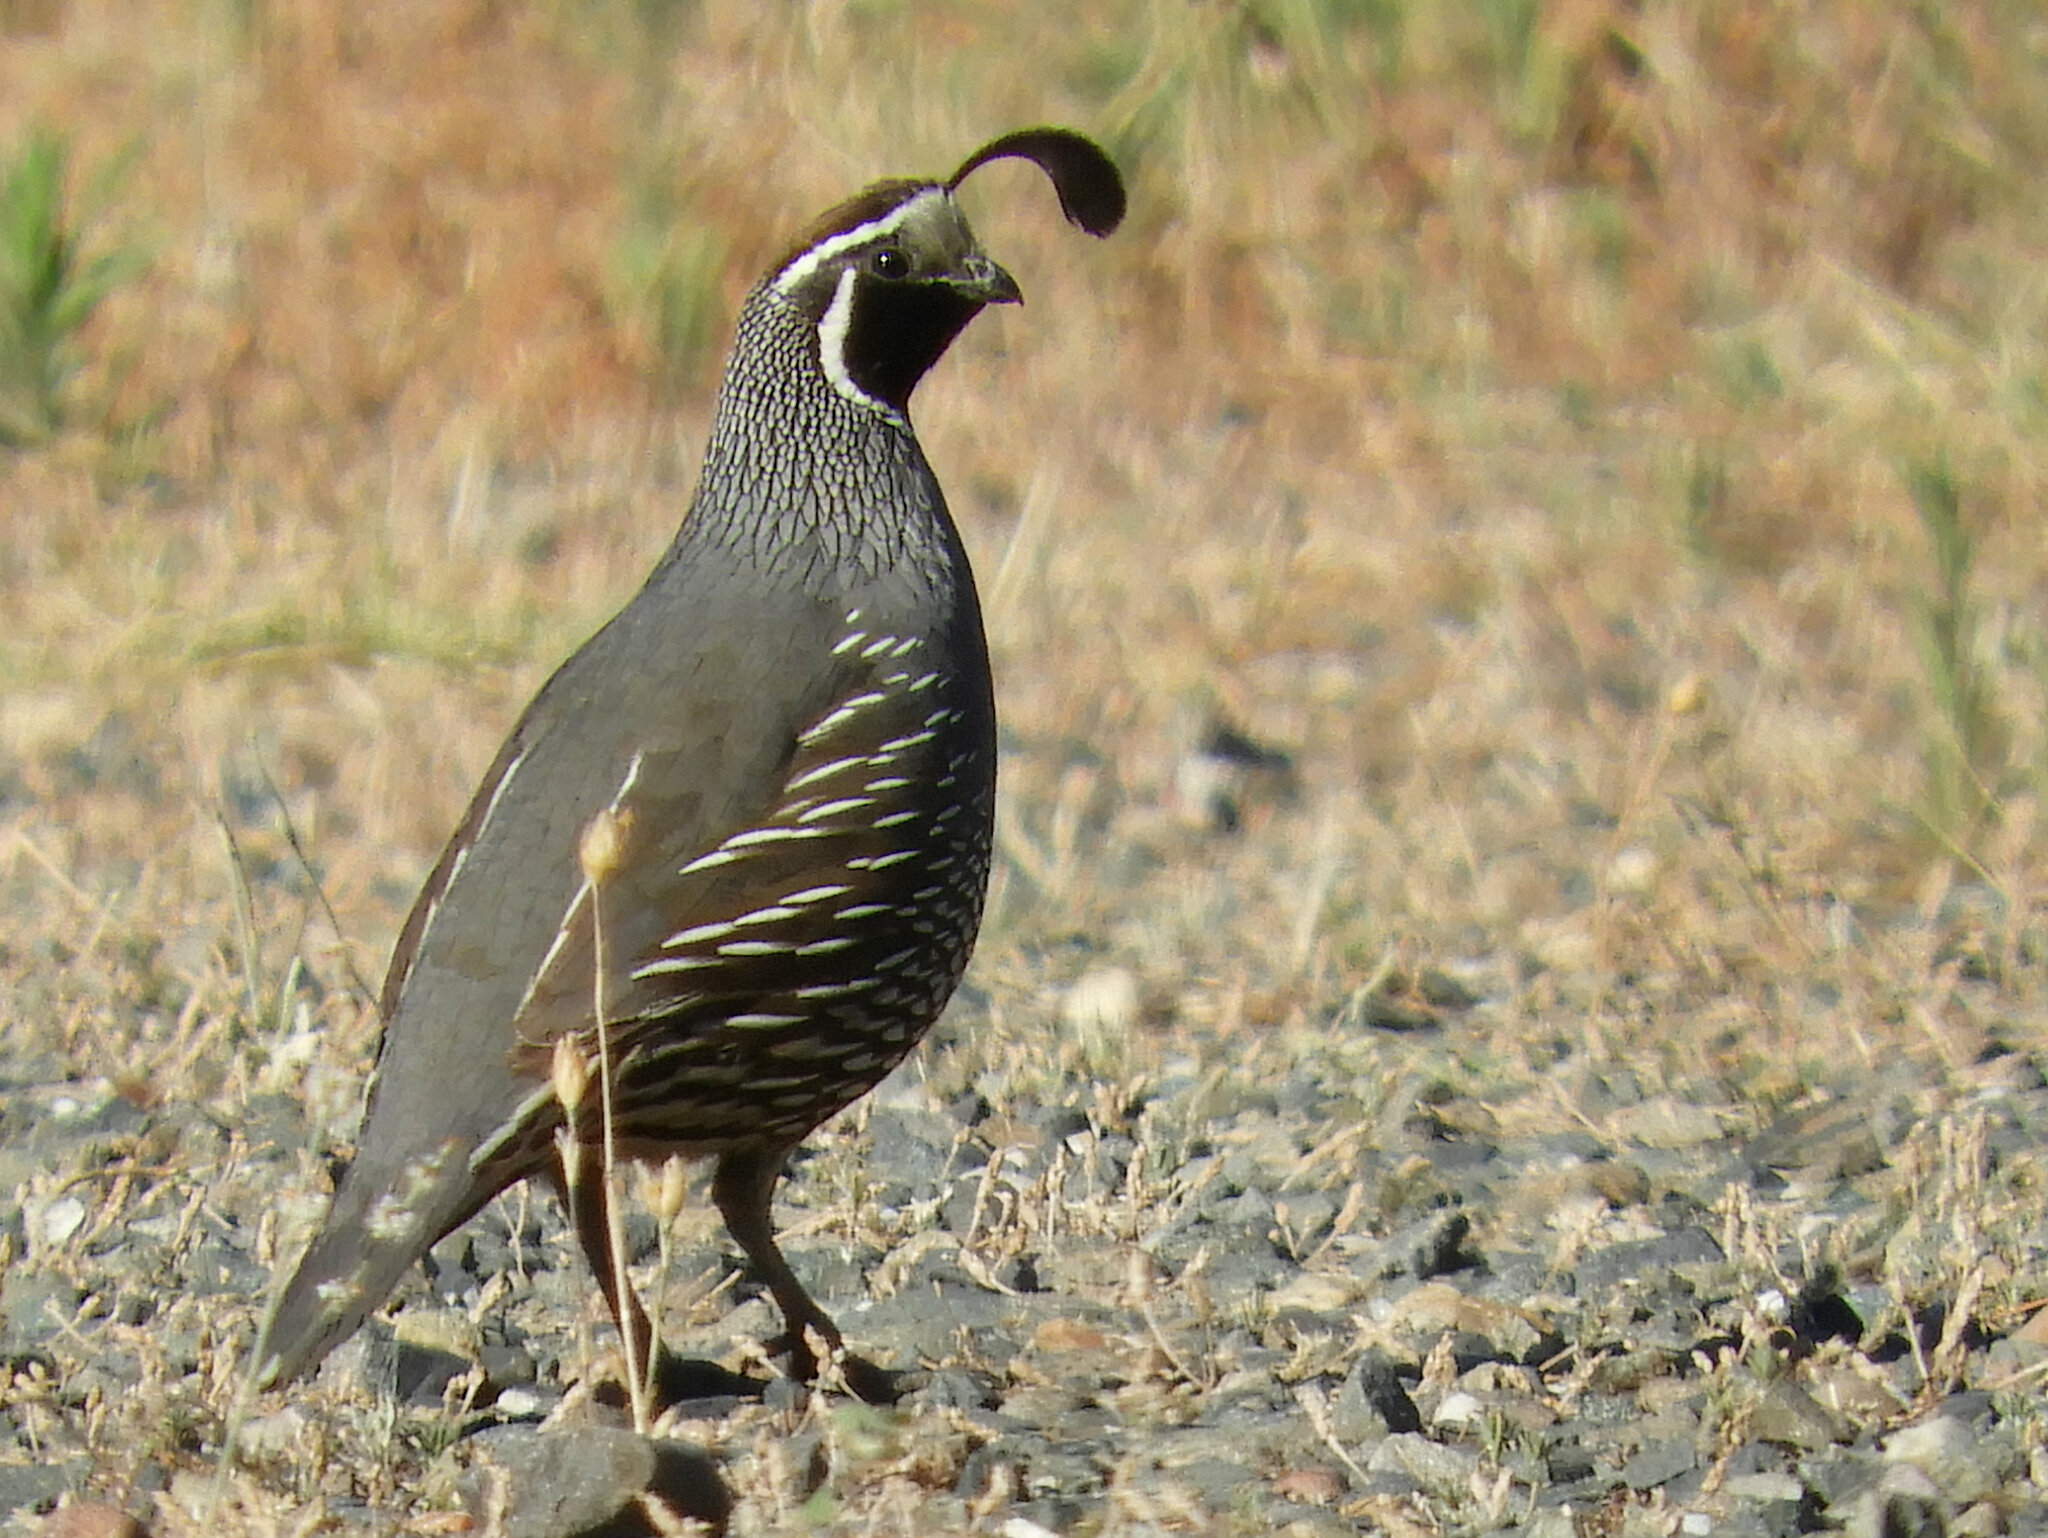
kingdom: Animalia
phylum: Chordata
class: Aves
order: Galliformes
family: Odontophoridae
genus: Callipepla
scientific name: Callipepla californica
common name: California quail
